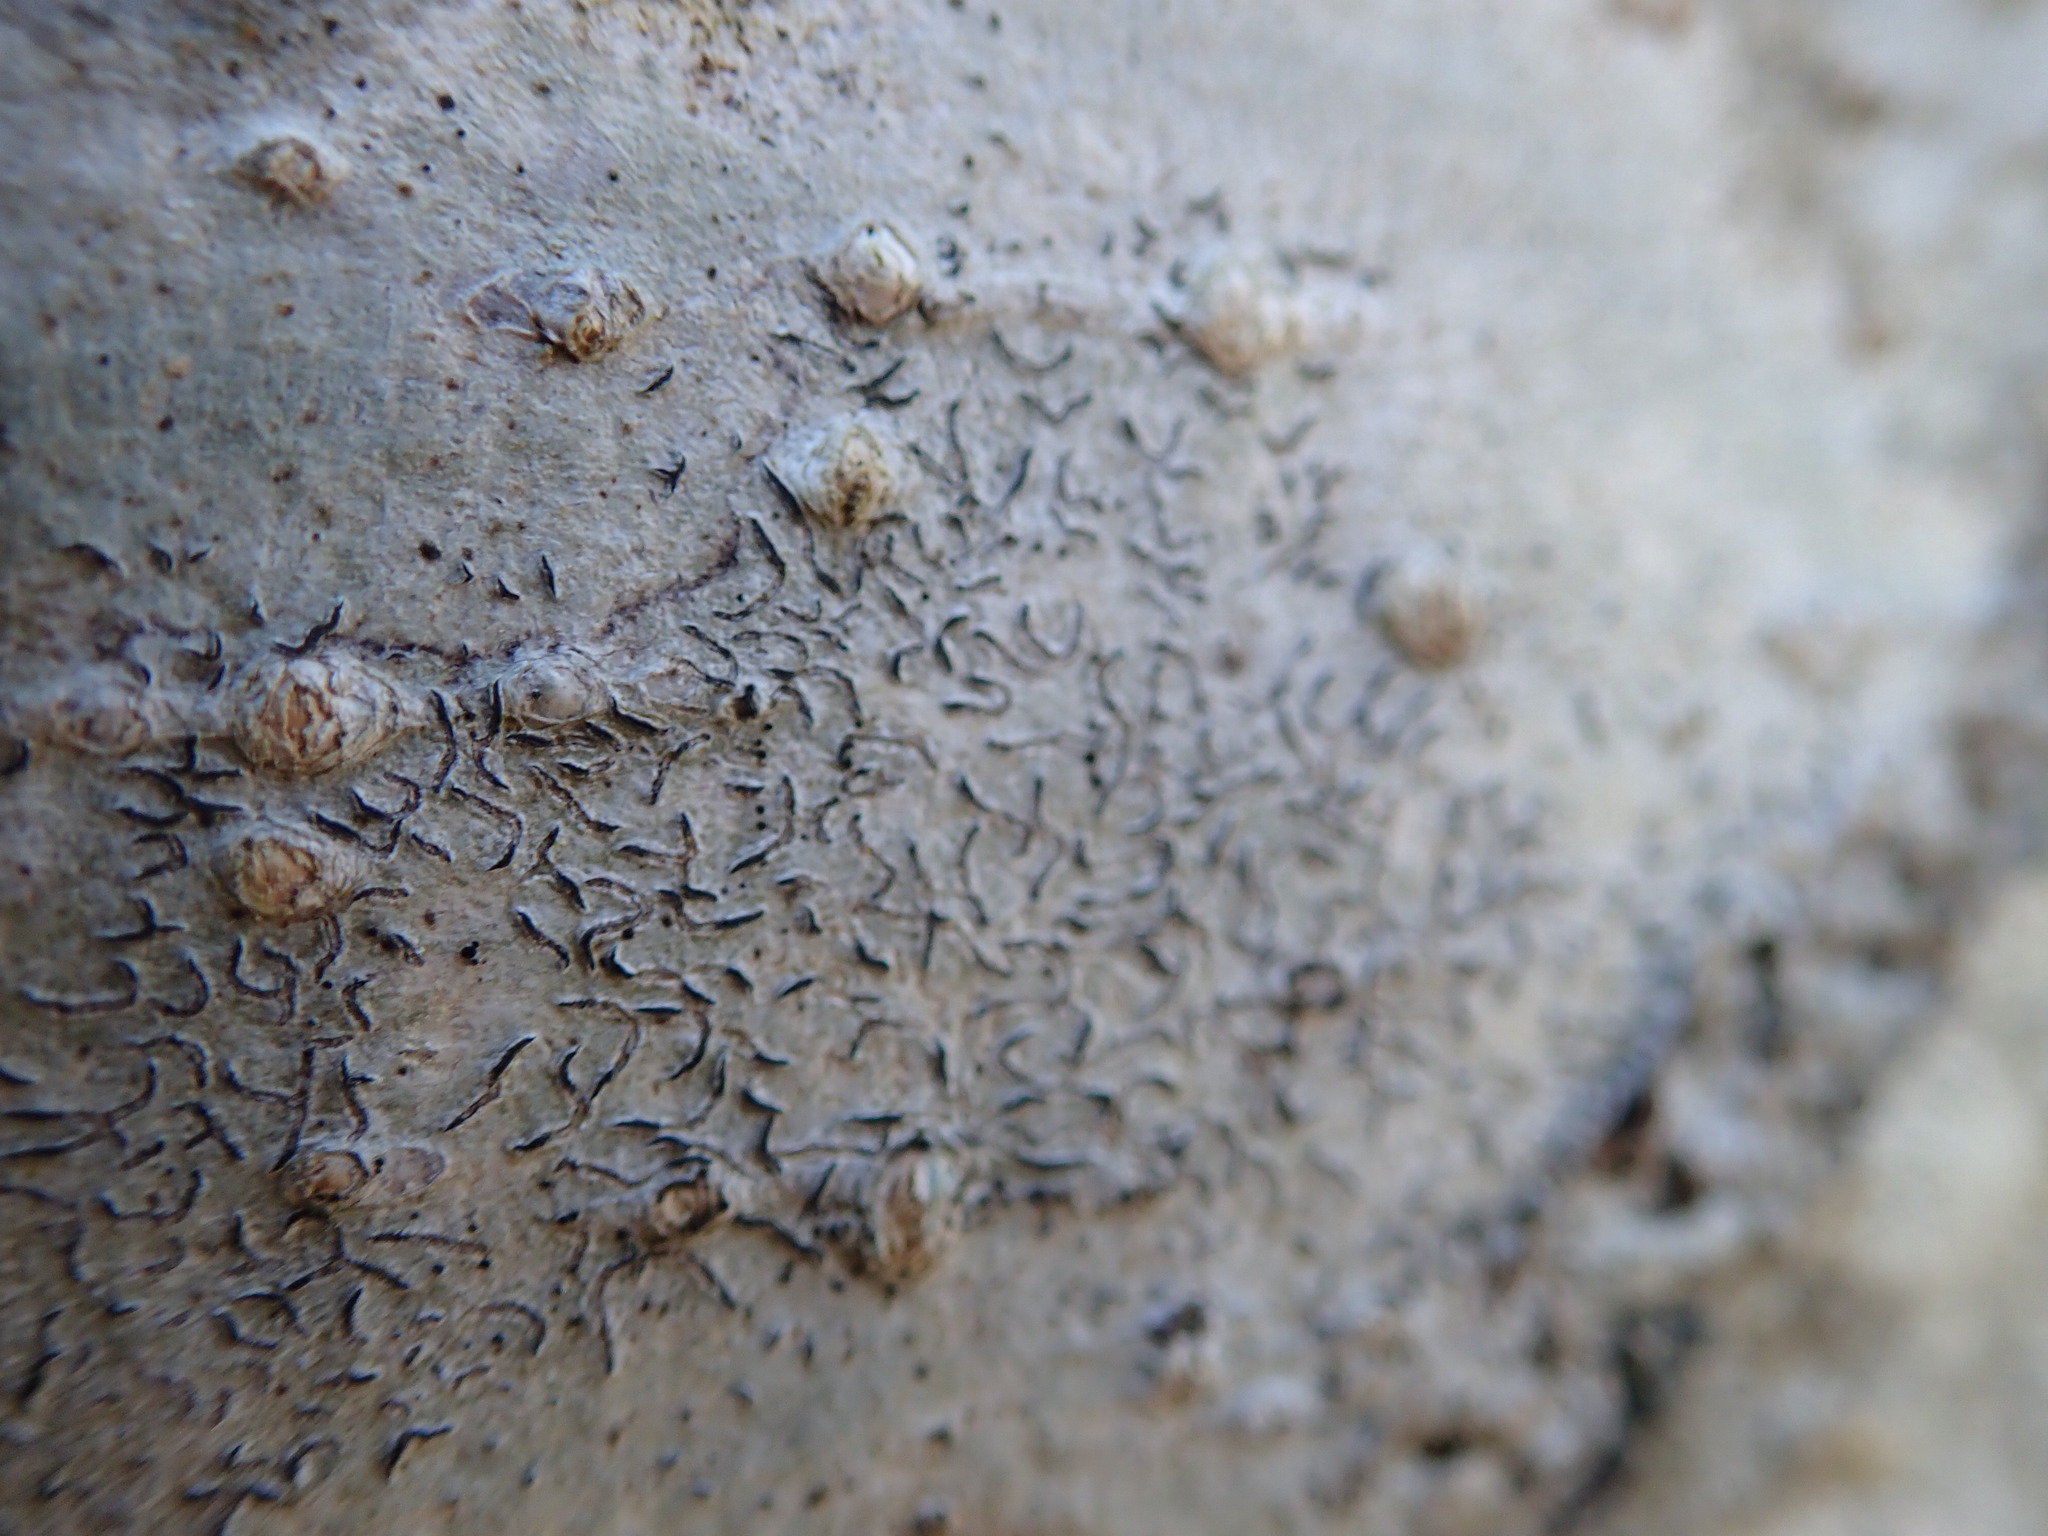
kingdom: Fungi
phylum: Ascomycota
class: Lecanoromycetes
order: Ostropales
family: Graphidaceae
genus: Graphis
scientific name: Graphis scripta
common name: Script lichen
